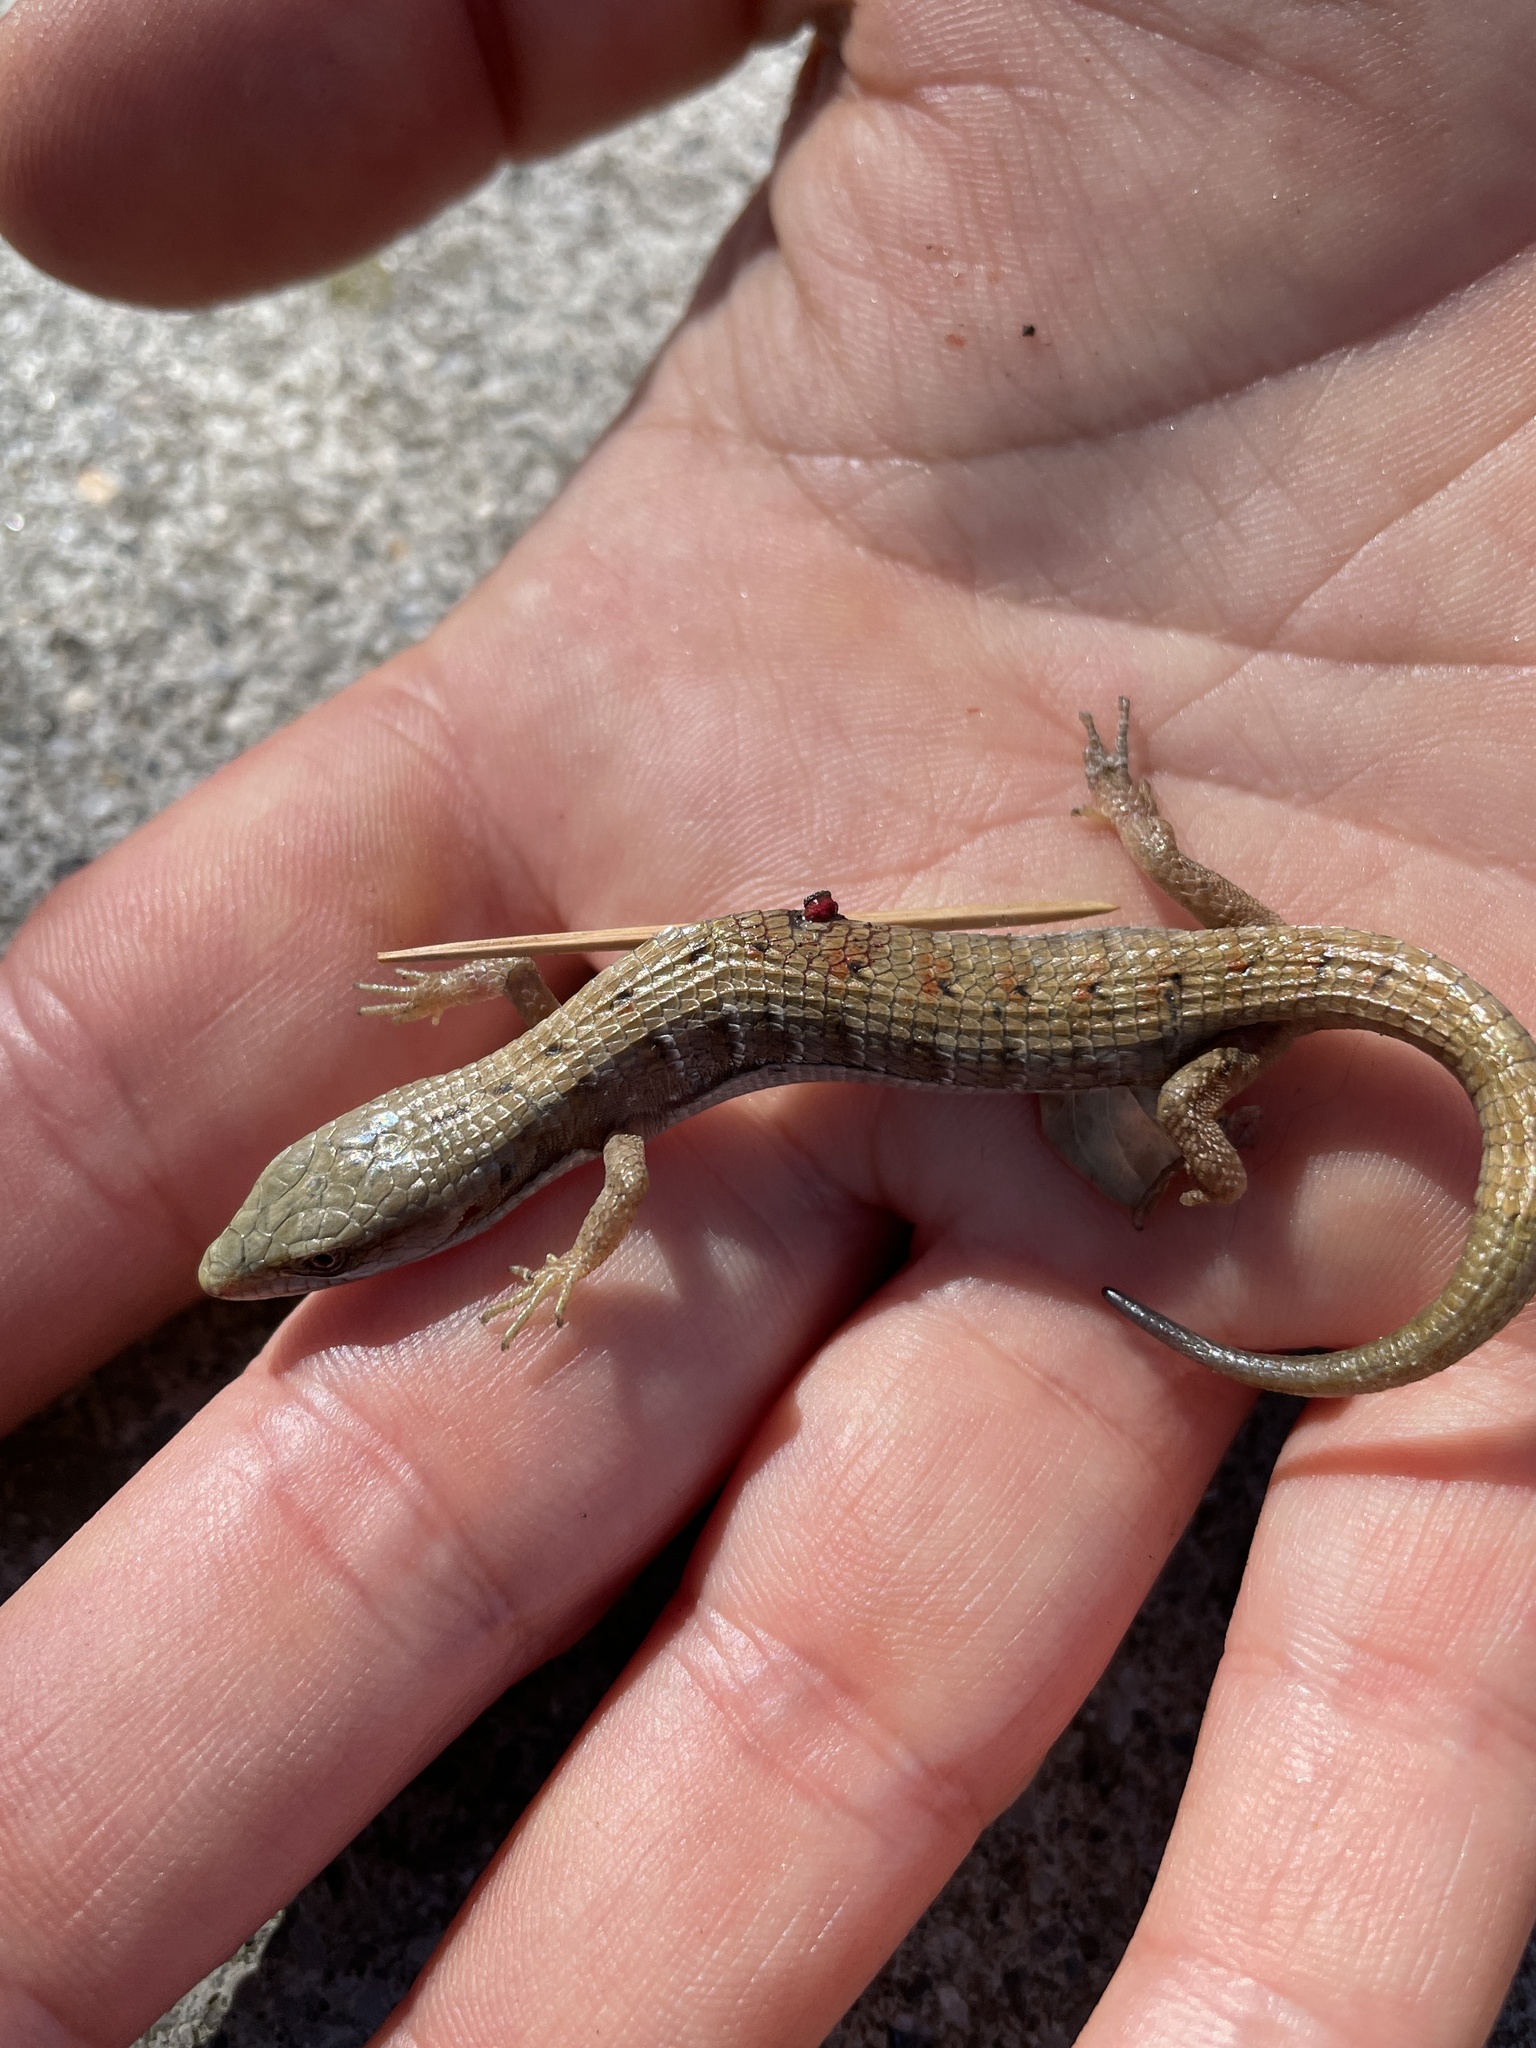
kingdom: Animalia
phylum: Chordata
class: Squamata
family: Anguidae
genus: Elgaria
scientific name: Elgaria multicarinata
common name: Southern alligator lizard
